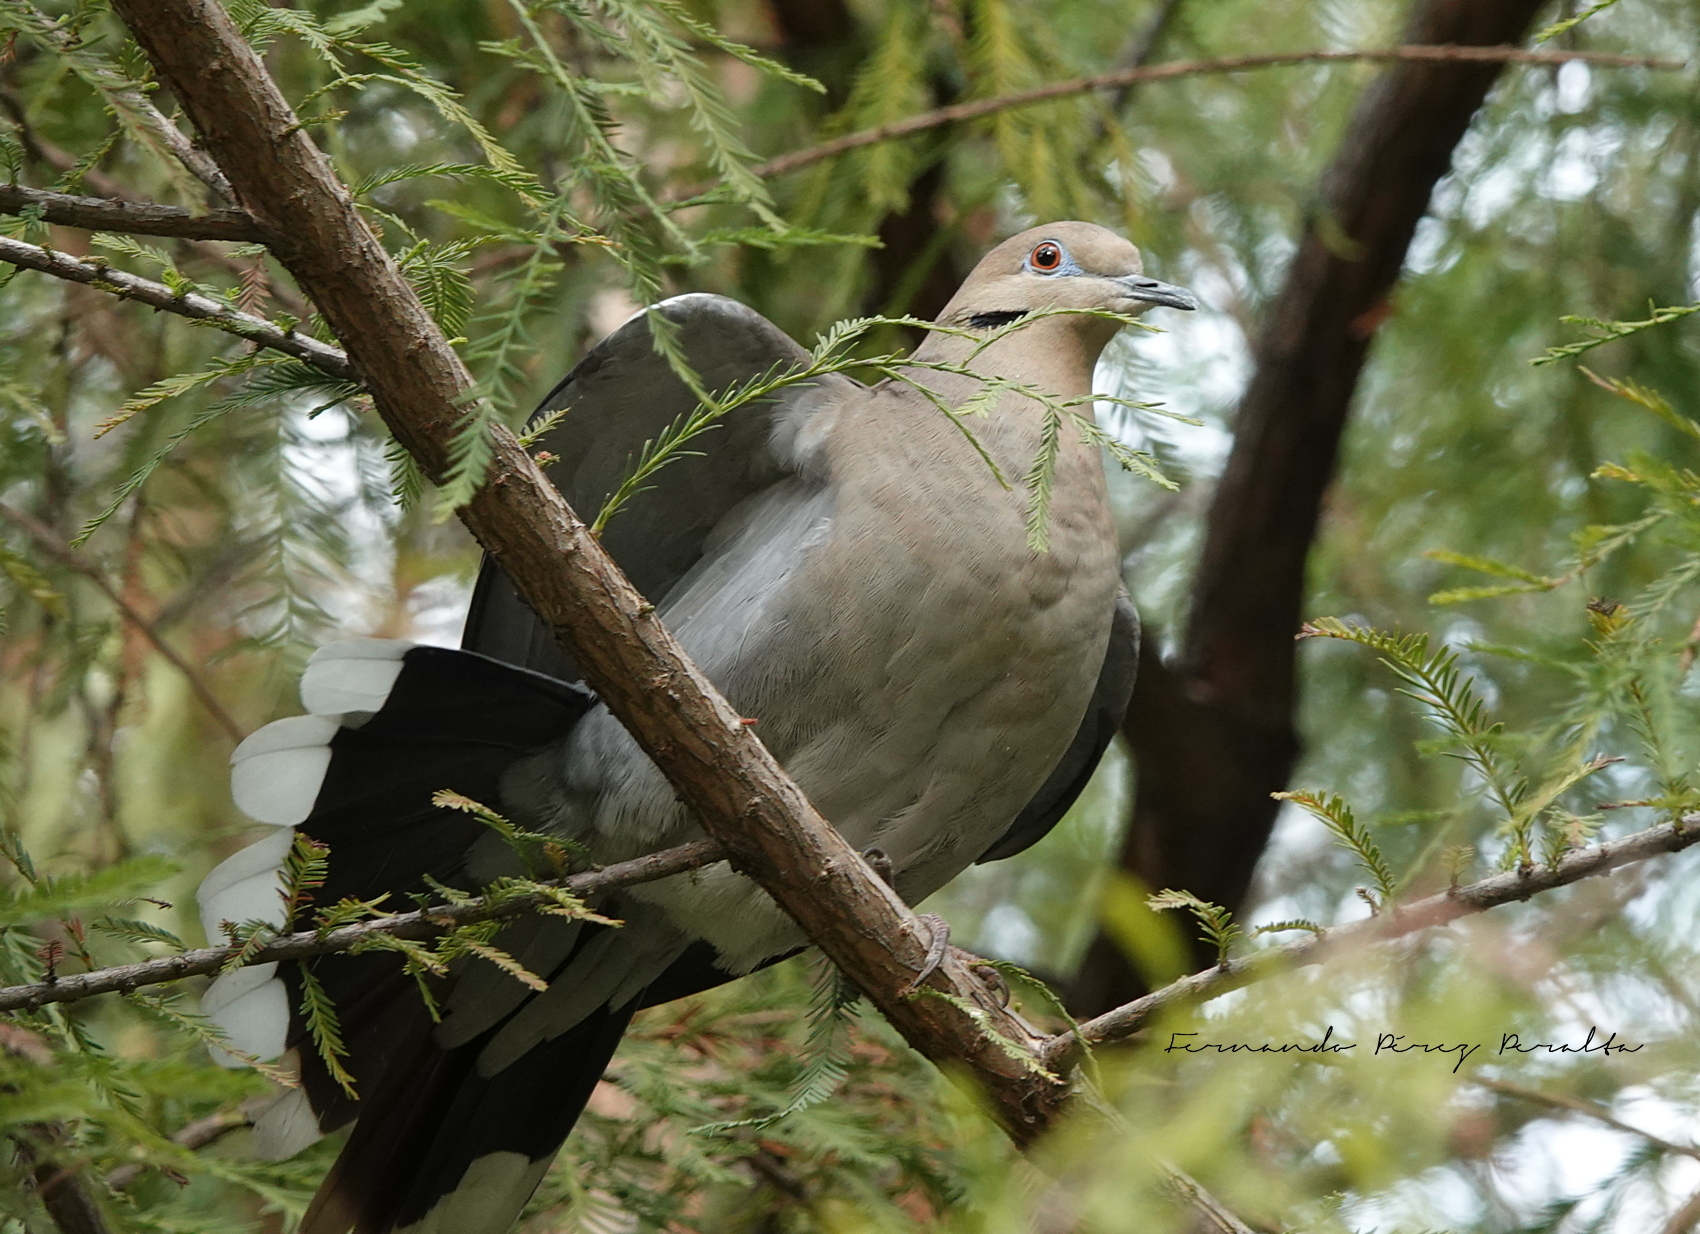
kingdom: Animalia
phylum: Chordata
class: Aves
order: Columbiformes
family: Columbidae
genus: Zenaida
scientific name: Zenaida asiatica
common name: White-winged dove
